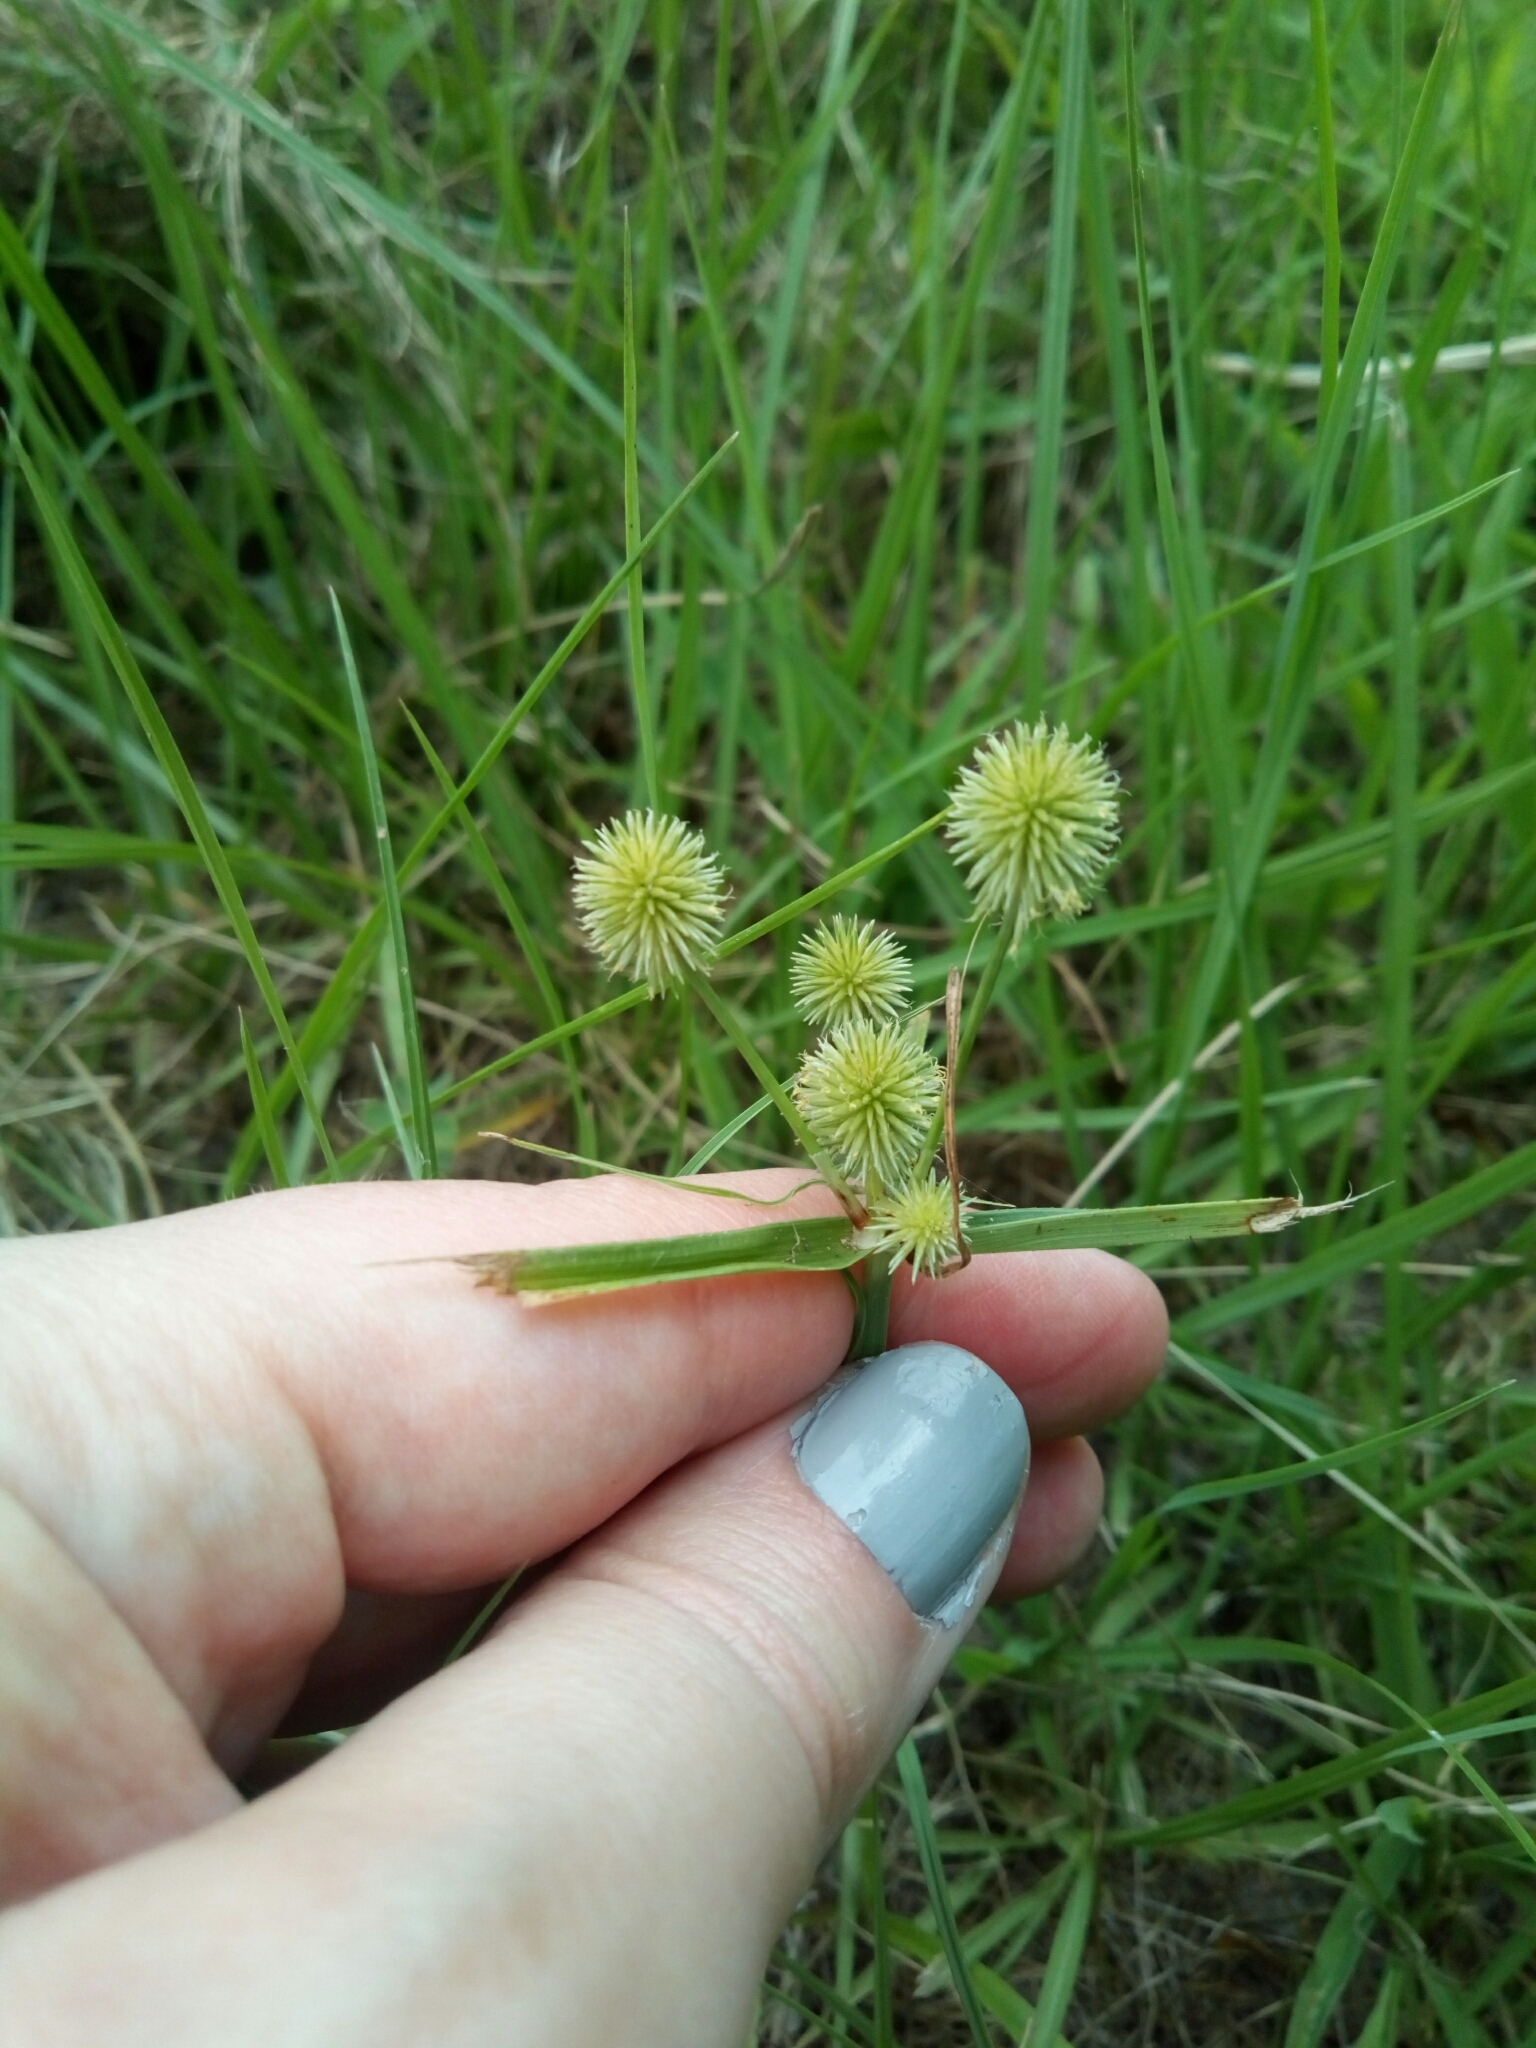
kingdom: Plantae
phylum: Tracheophyta
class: Liliopsida
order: Poales
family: Cyperaceae
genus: Cyperus
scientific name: Cyperus echinatus
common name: Teasel sedge
